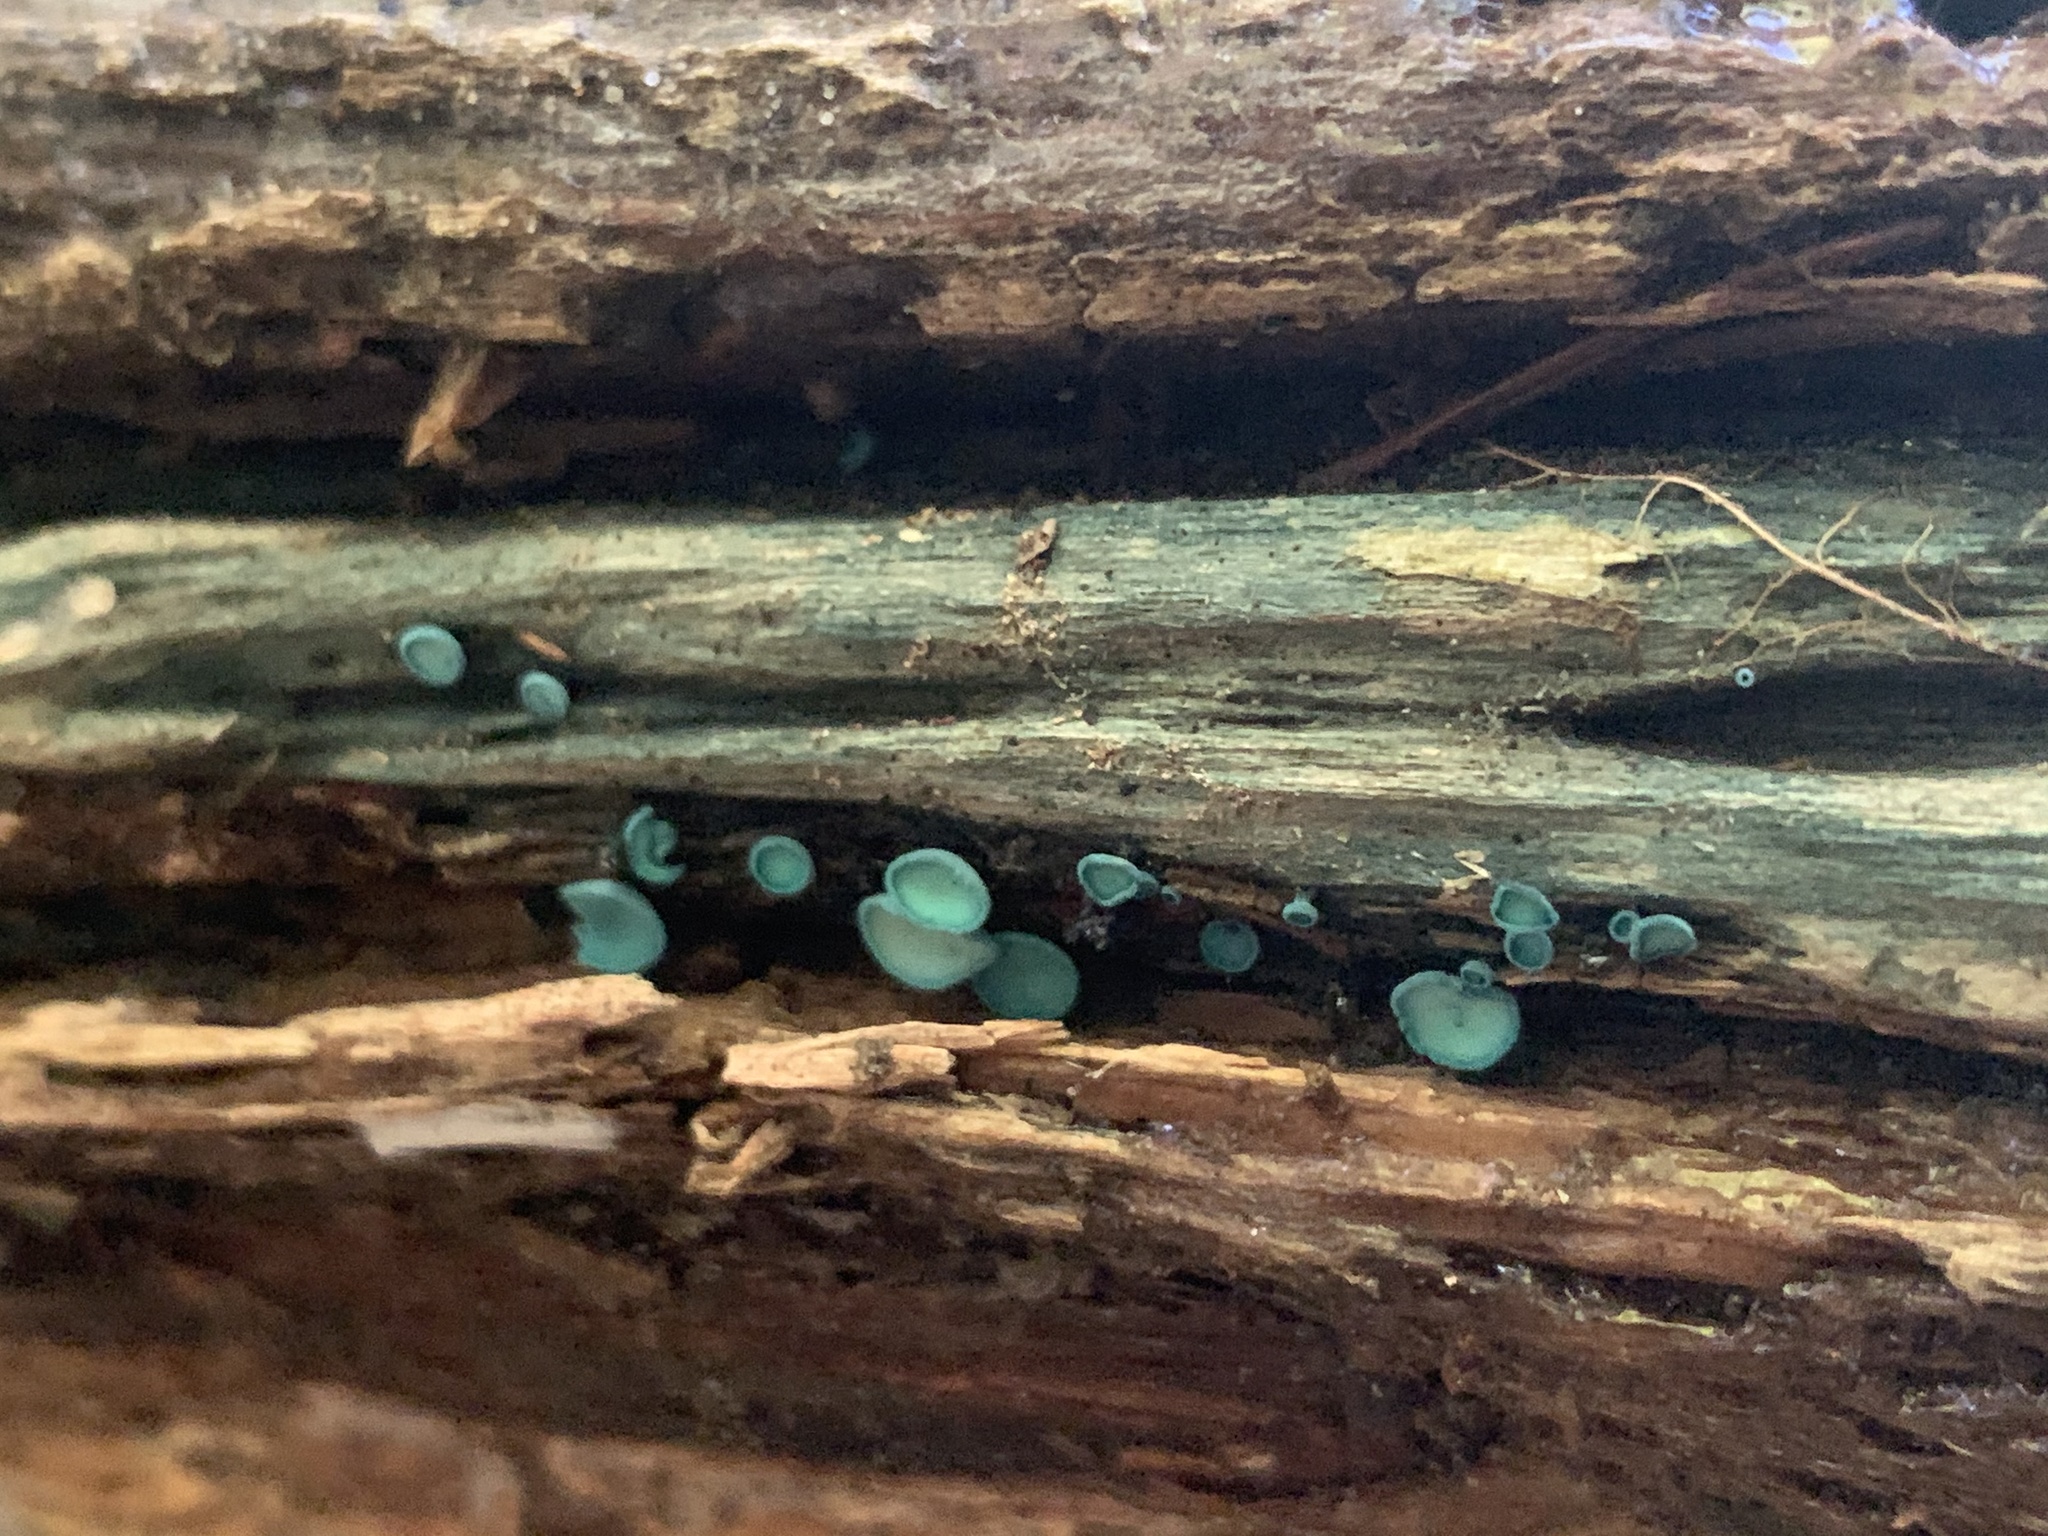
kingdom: Fungi
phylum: Ascomycota
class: Leotiomycetes
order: Helotiales
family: Chlorociboriaceae
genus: Chlorociboria
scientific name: Chlorociboria aeruginosa
